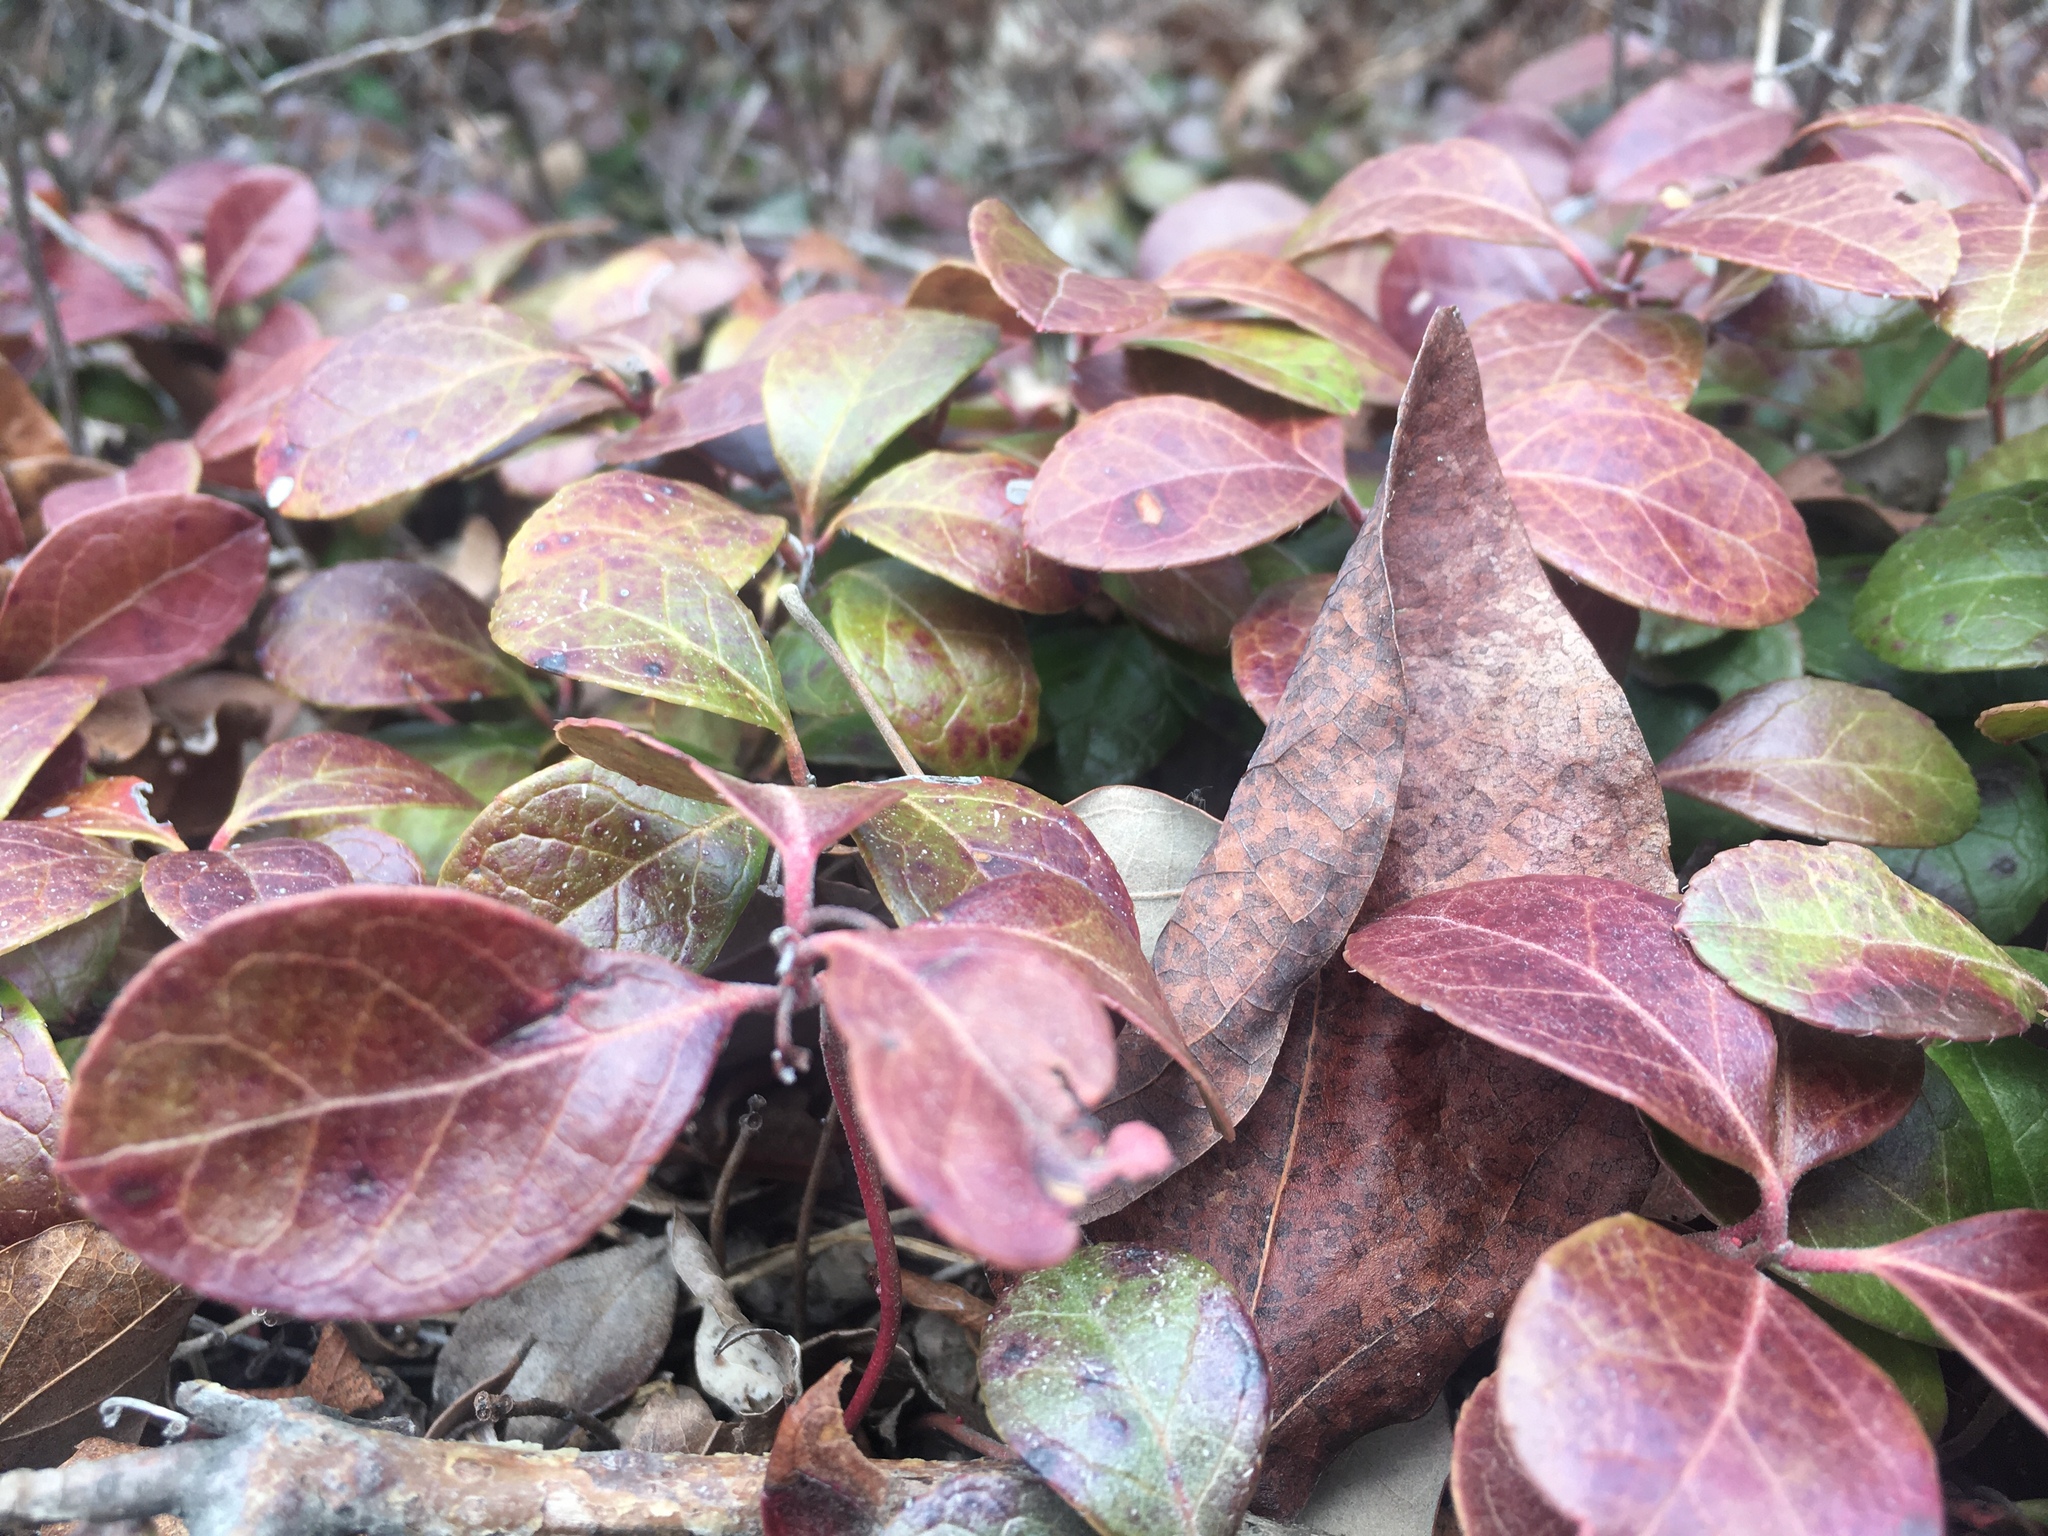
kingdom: Plantae
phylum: Tracheophyta
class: Magnoliopsida
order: Ericales
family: Ericaceae
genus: Gaultheria
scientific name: Gaultheria procumbens
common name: Checkerberry
